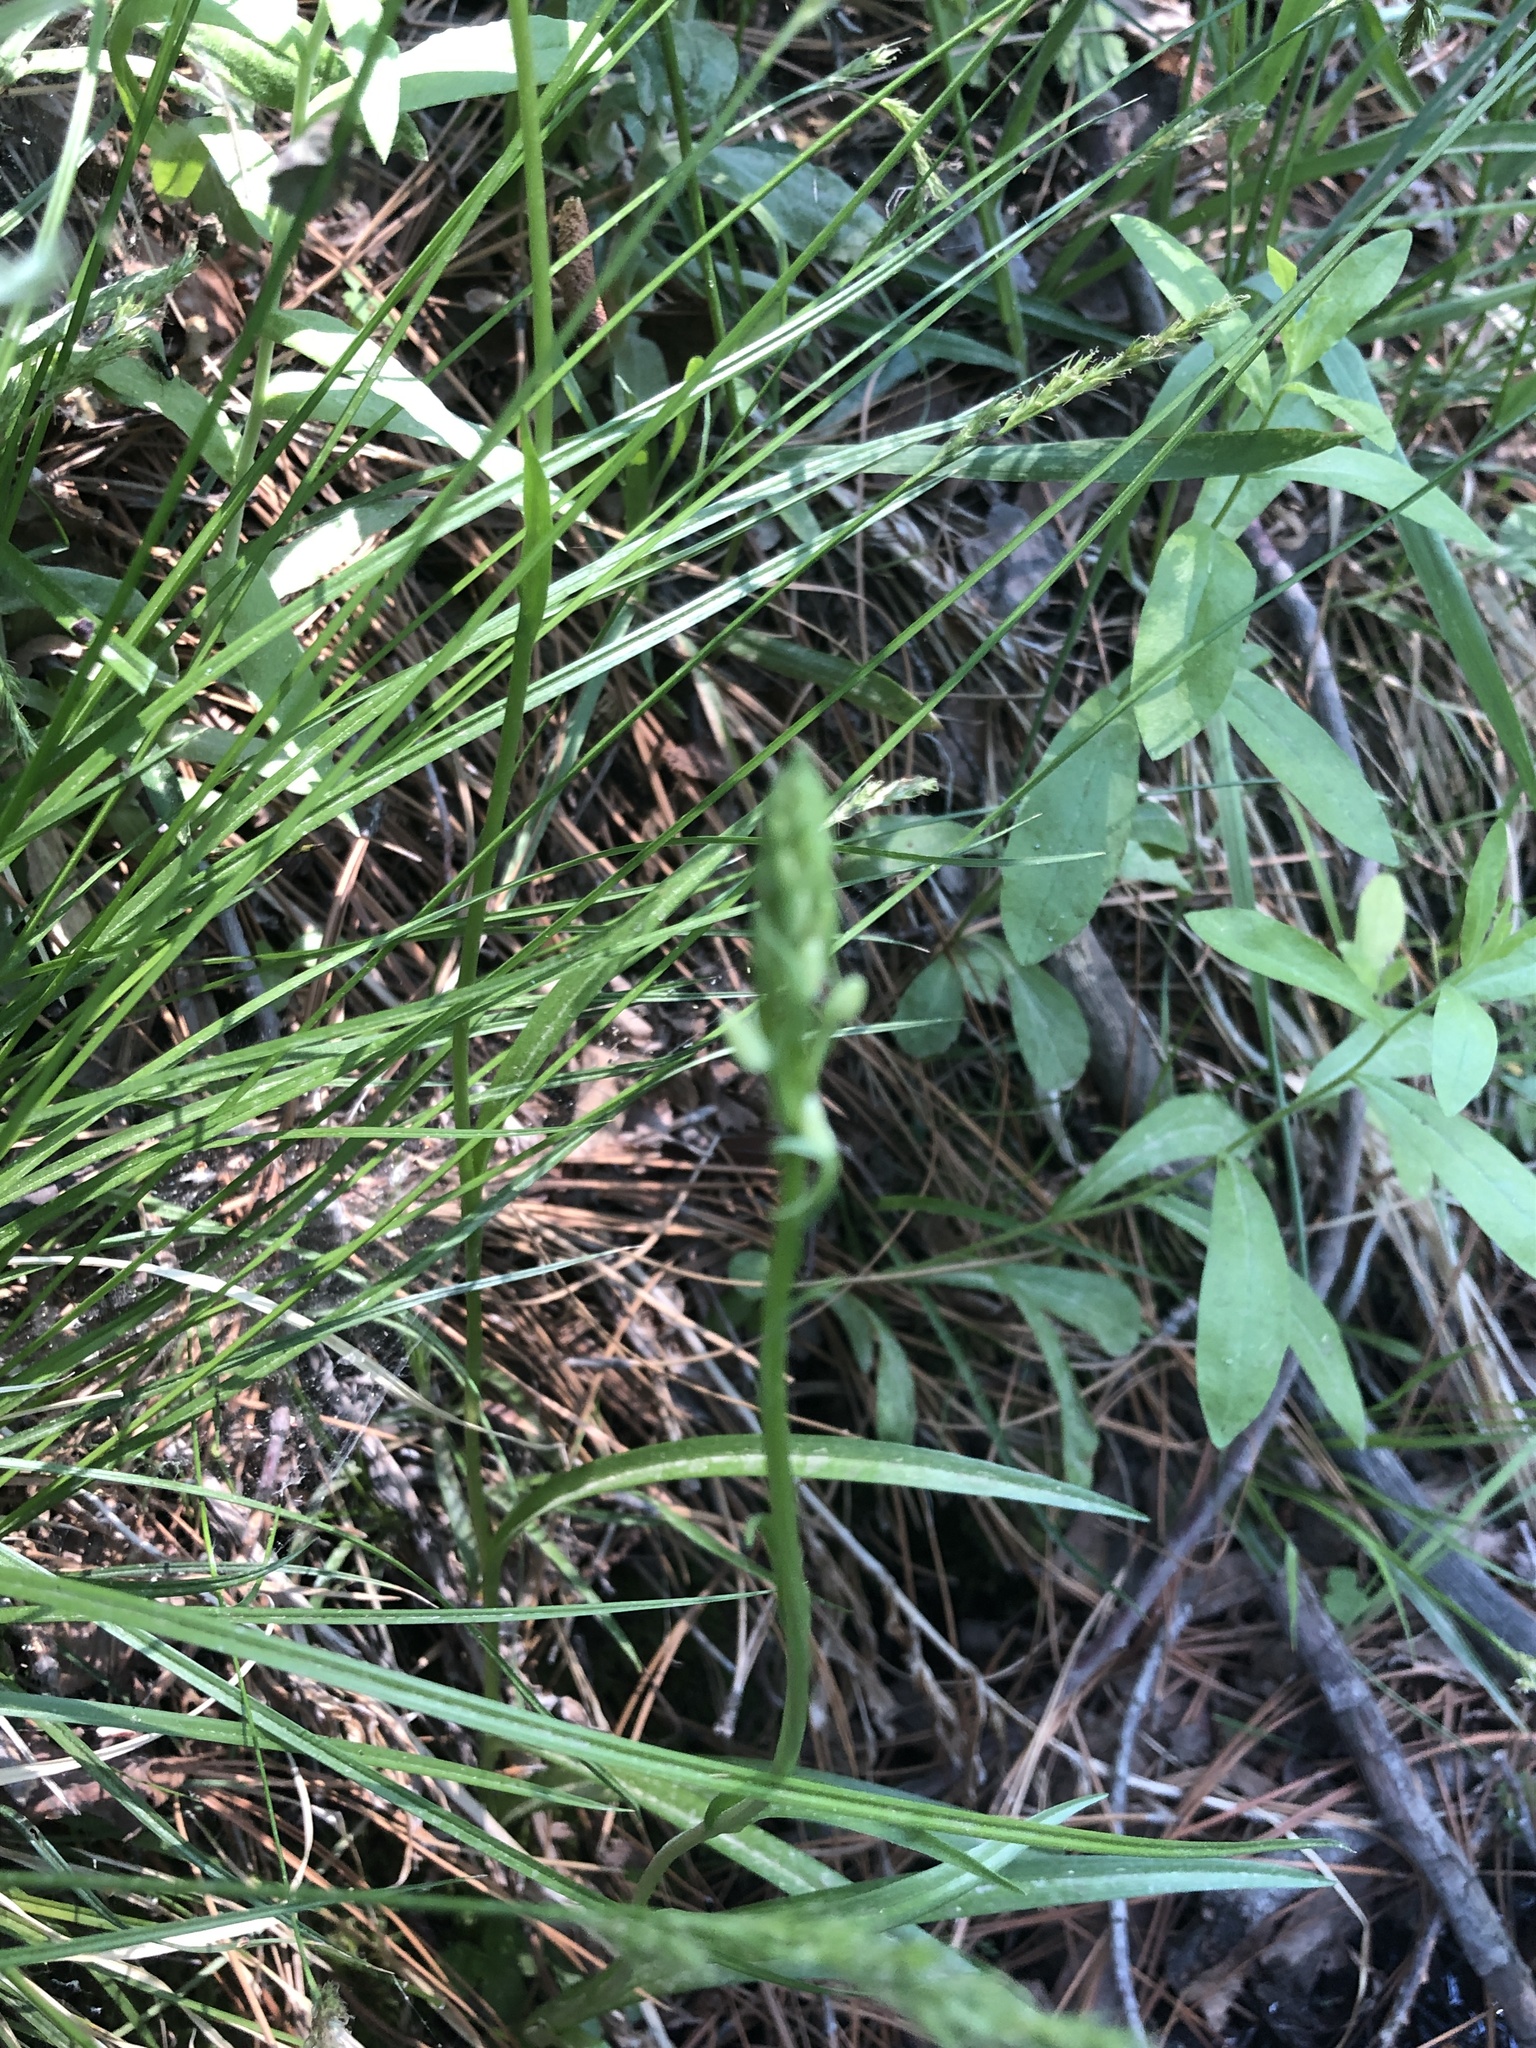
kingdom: Plantae
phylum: Tracheophyta
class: Liliopsida
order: Asparagales
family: Orchidaceae
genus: Platanthera
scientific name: Platanthera dilatata
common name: Bog candles
